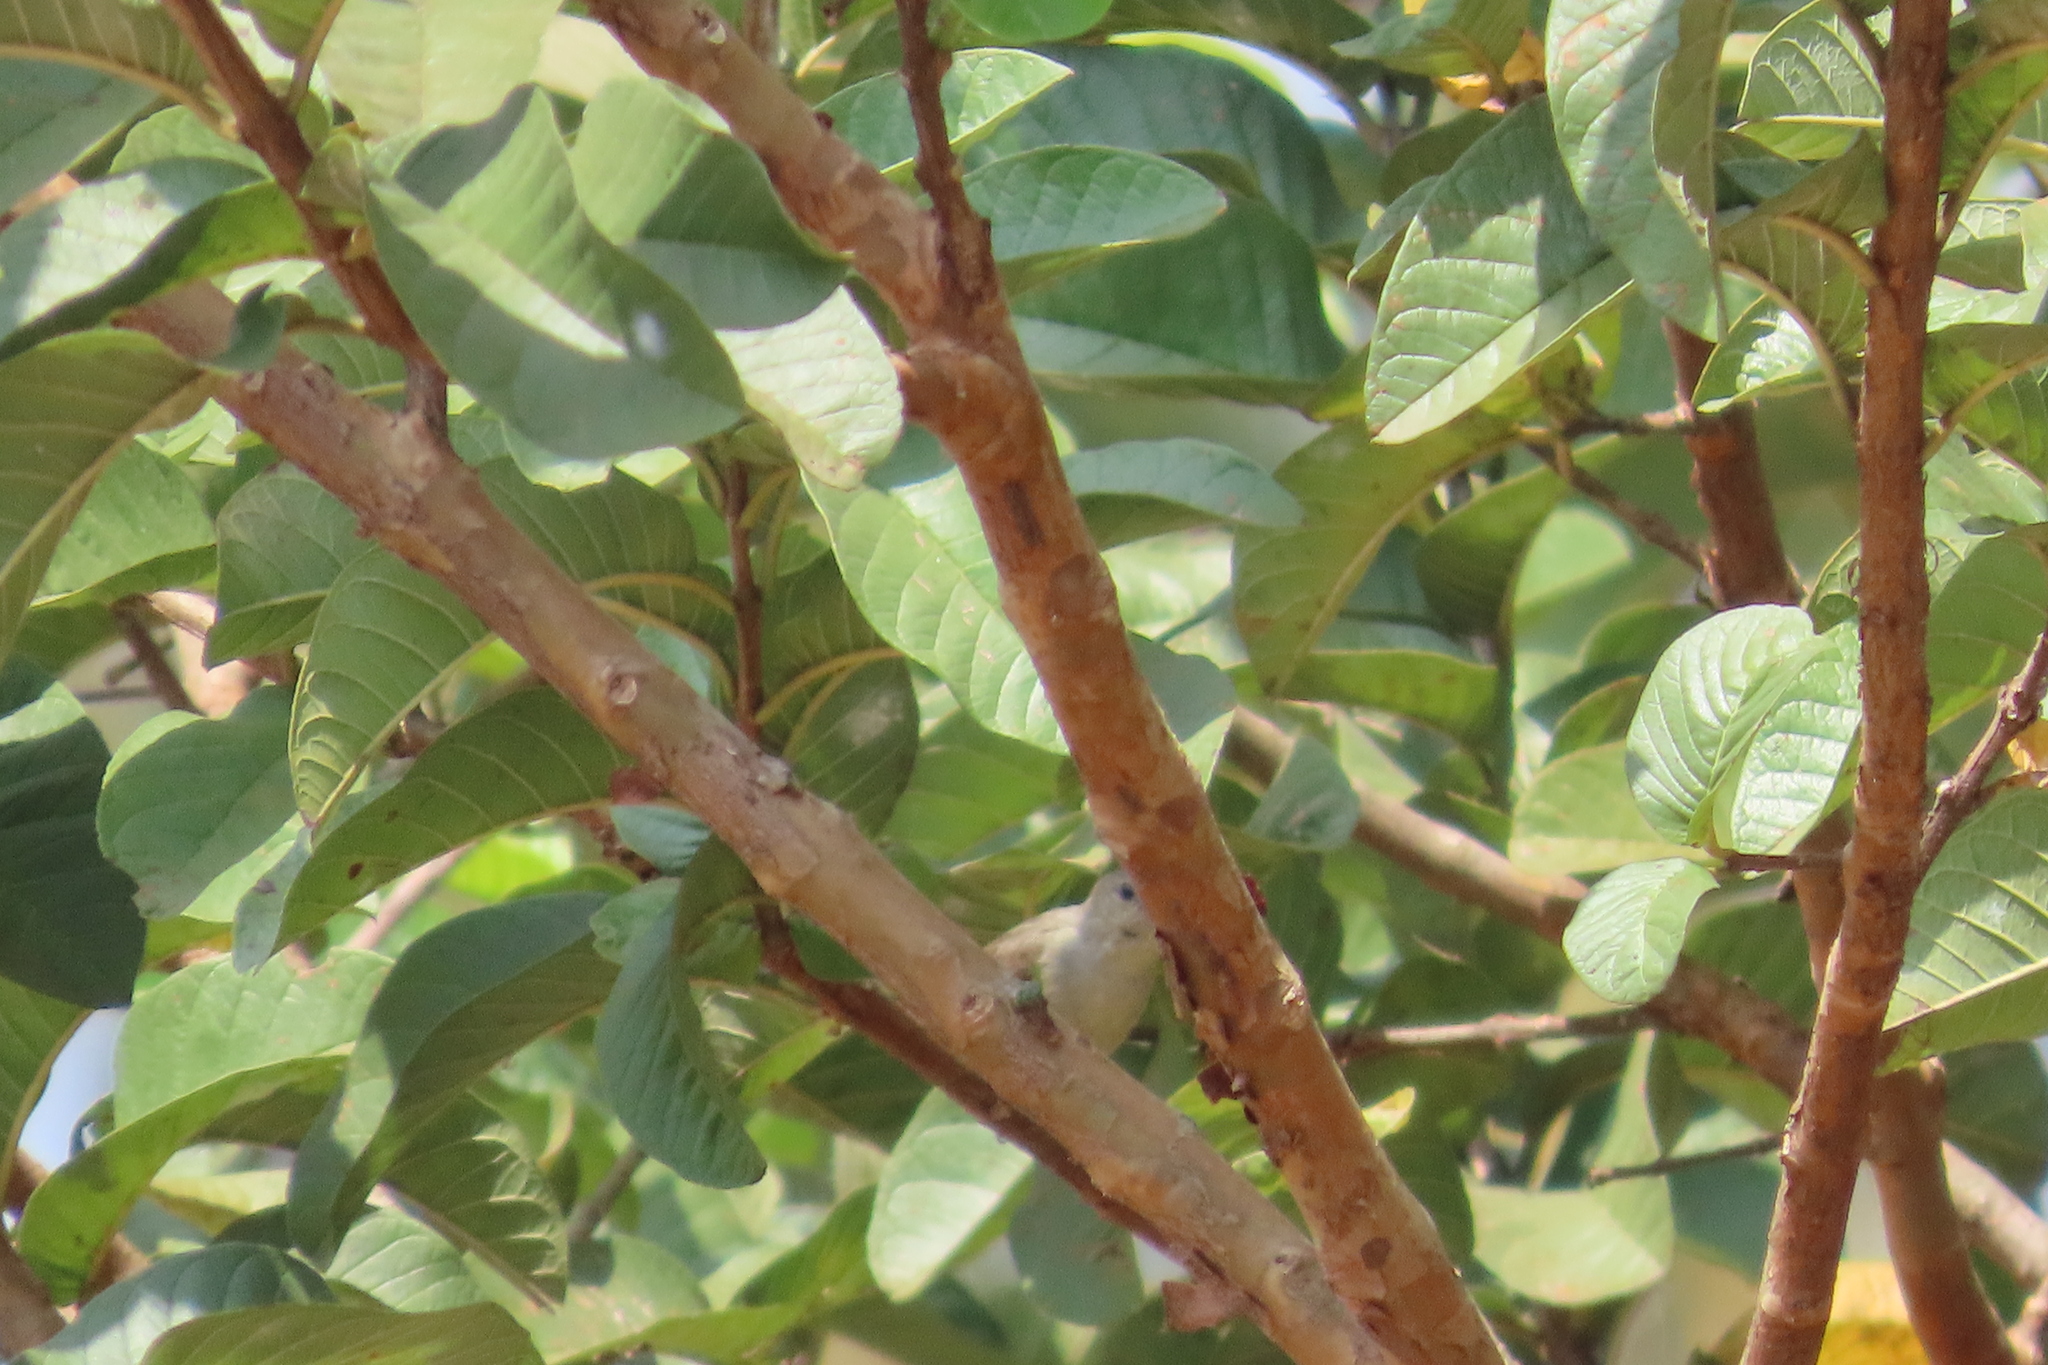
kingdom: Animalia
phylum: Chordata
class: Aves
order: Passeriformes
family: Dicaeidae
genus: Dicaeum
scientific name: Dicaeum erythrorhynchos
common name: Pale-billed flowerpecker
